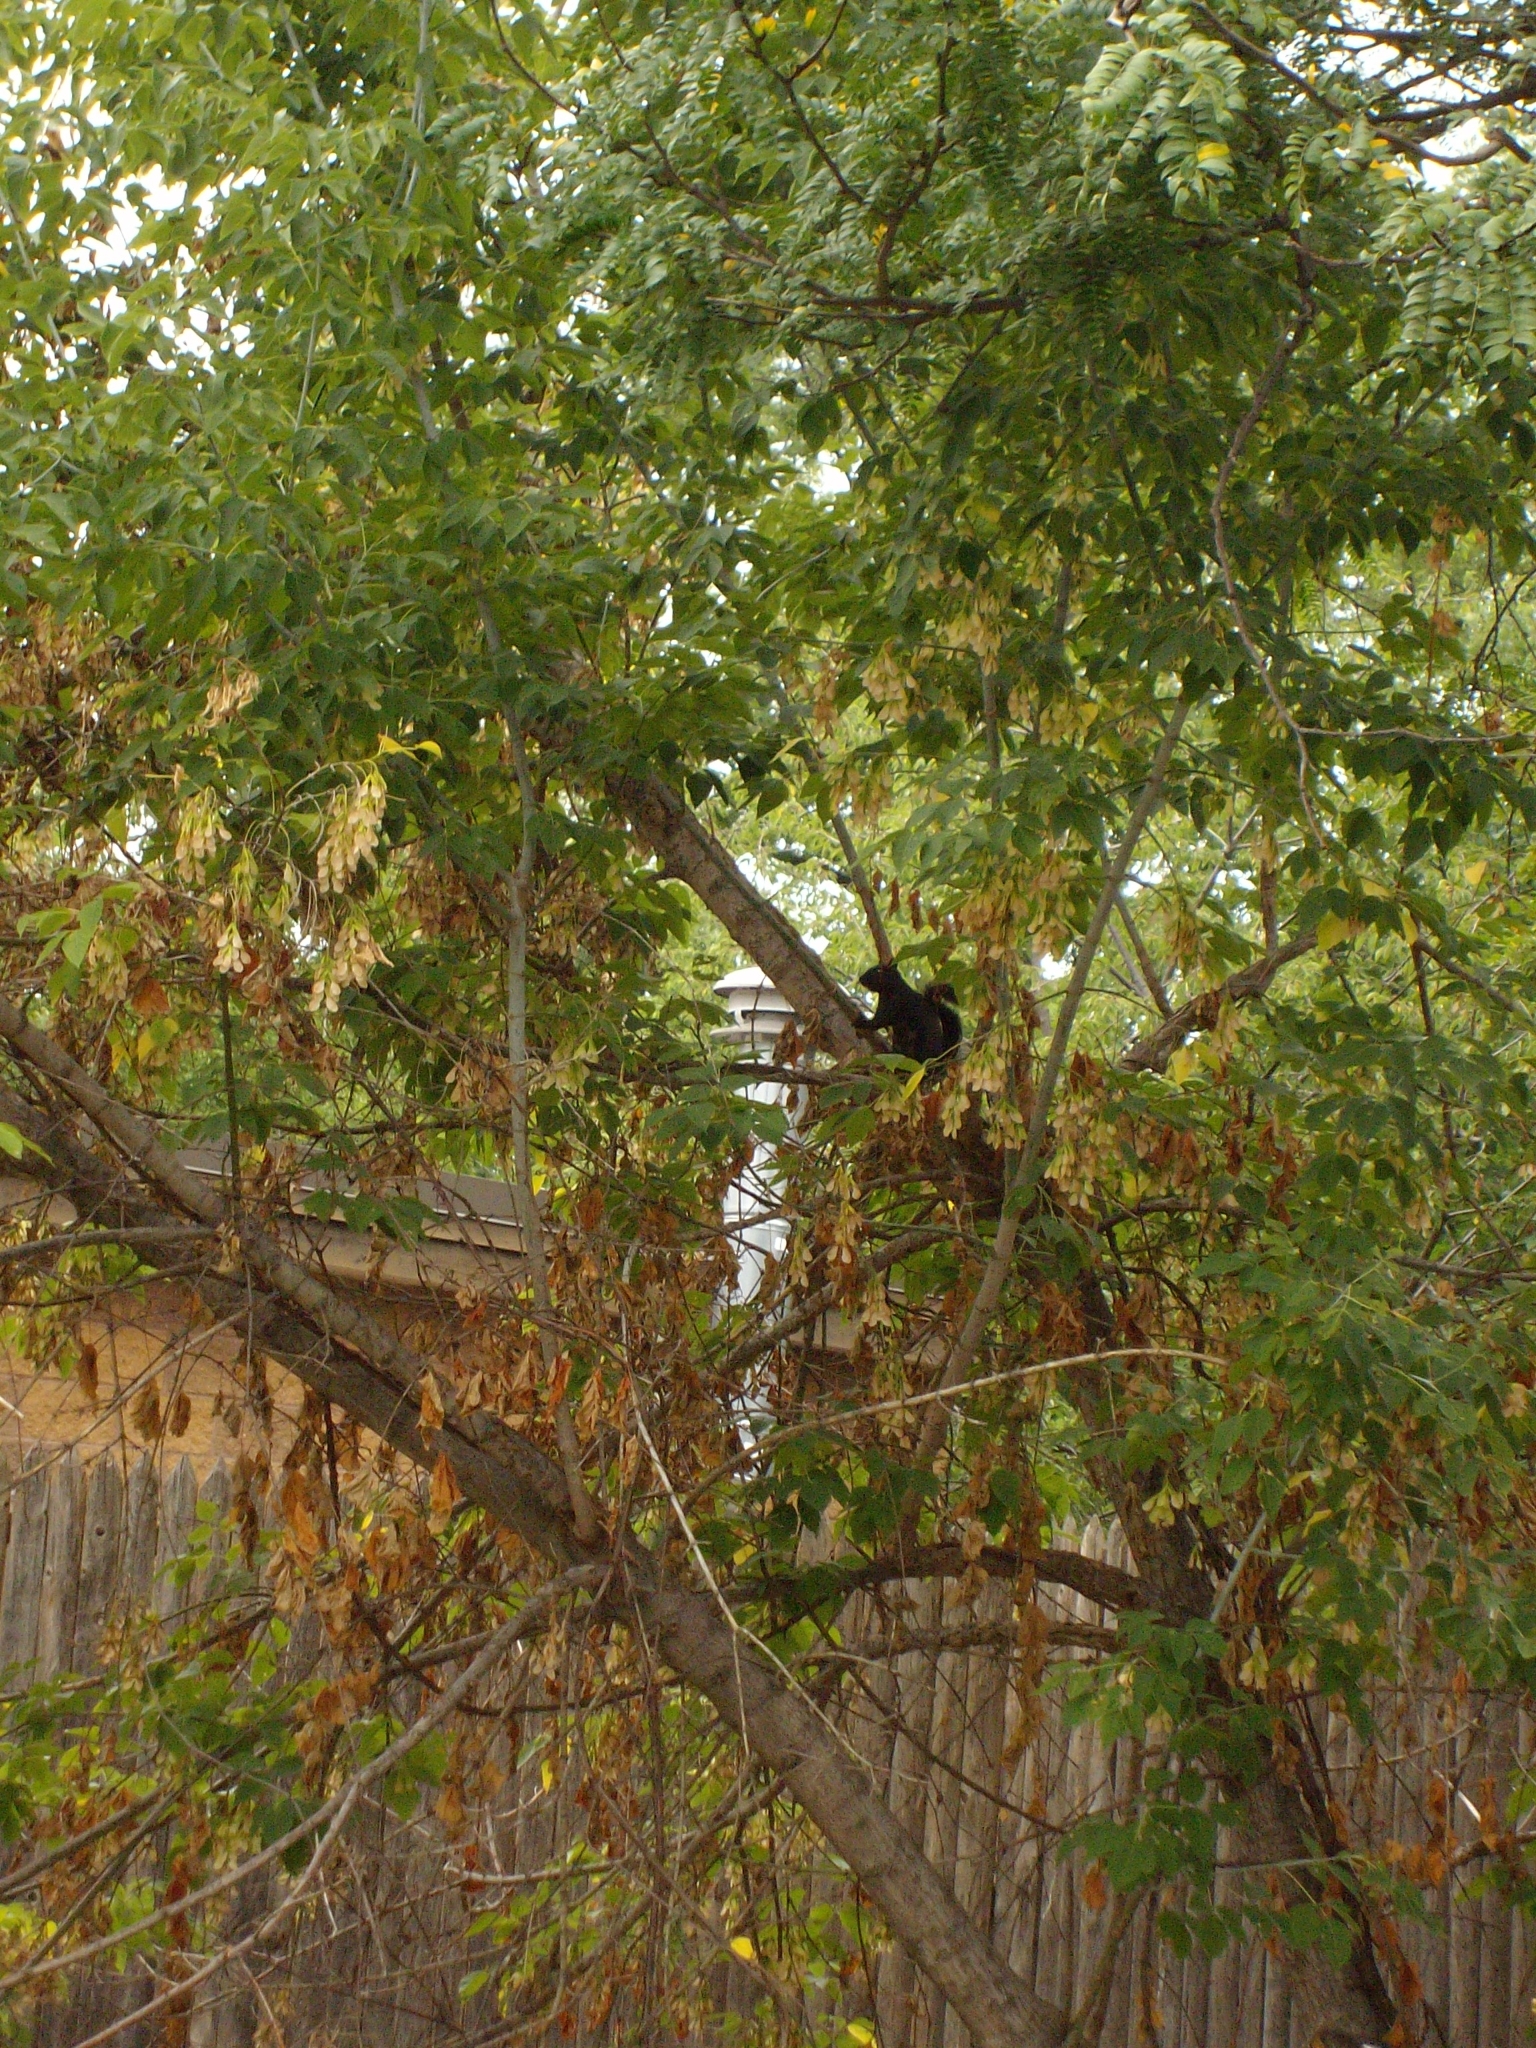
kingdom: Animalia
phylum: Chordata
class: Mammalia
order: Rodentia
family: Sciuridae
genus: Sciurus
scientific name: Sciurus carolinensis
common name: Eastern gray squirrel
